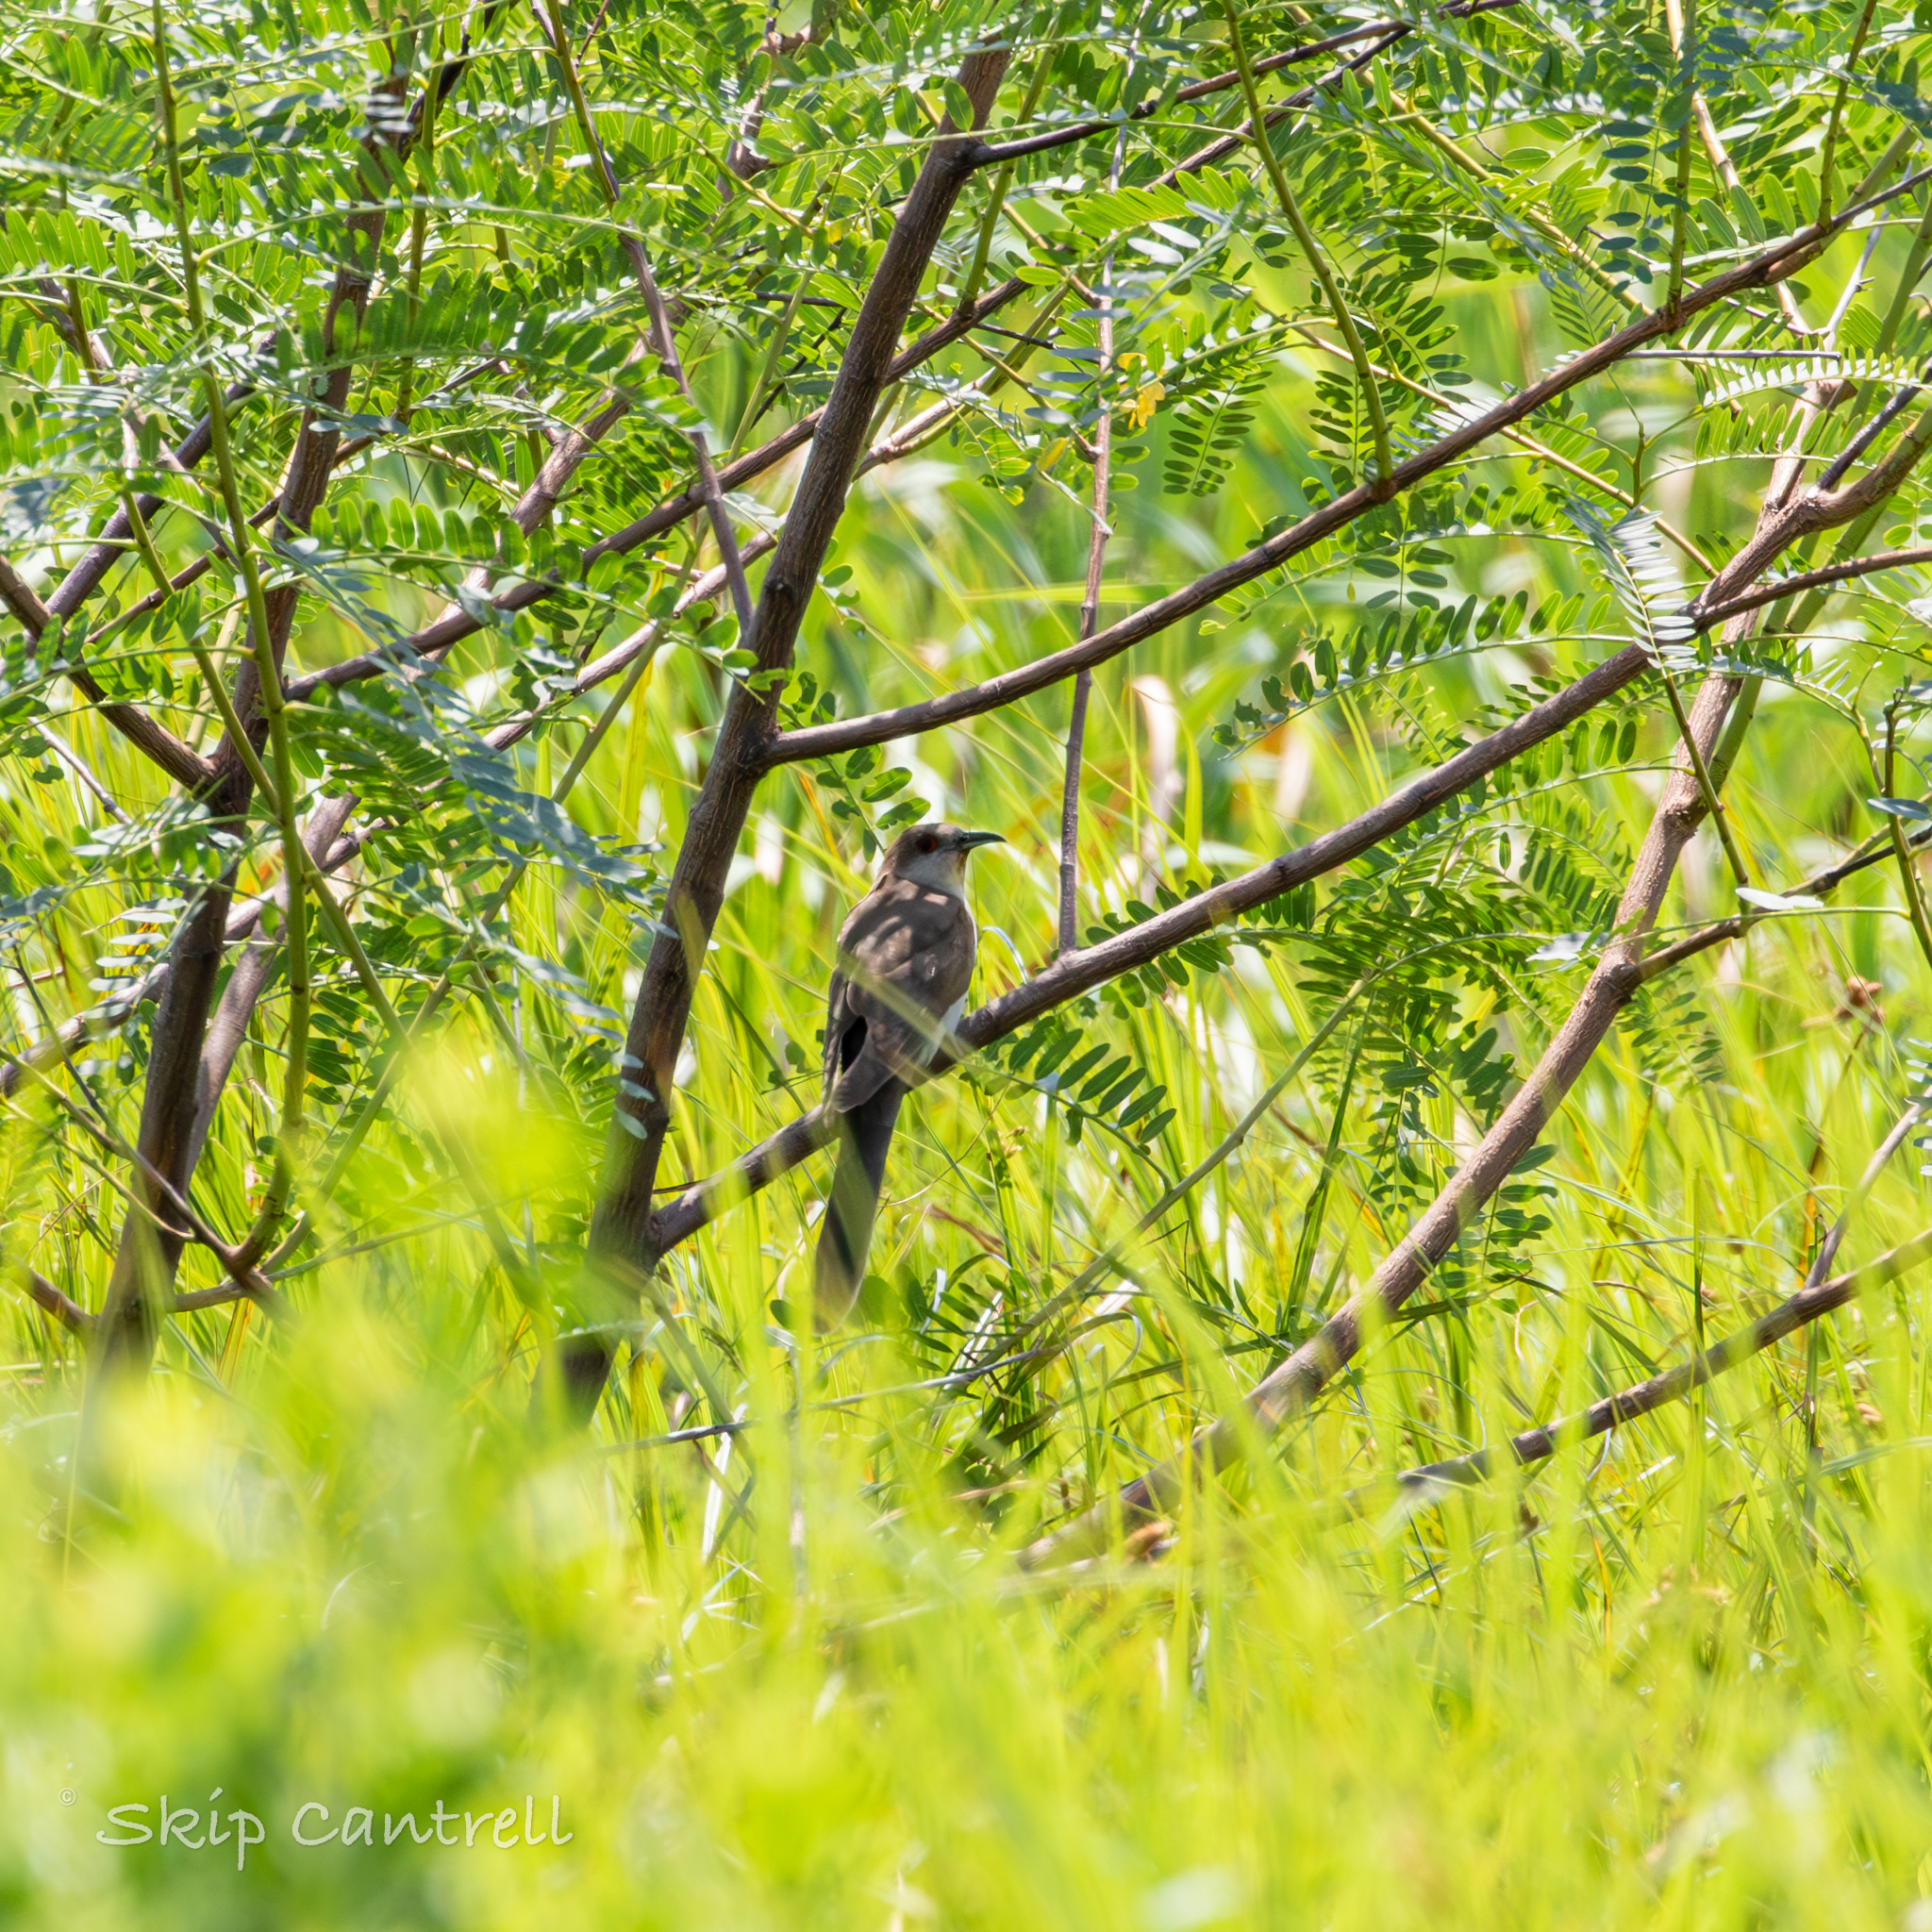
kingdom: Animalia
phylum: Chordata
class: Aves
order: Cuculiformes
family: Cuculidae
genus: Coccyzus
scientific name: Coccyzus erythropthalmus
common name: Black-billed cuckoo
